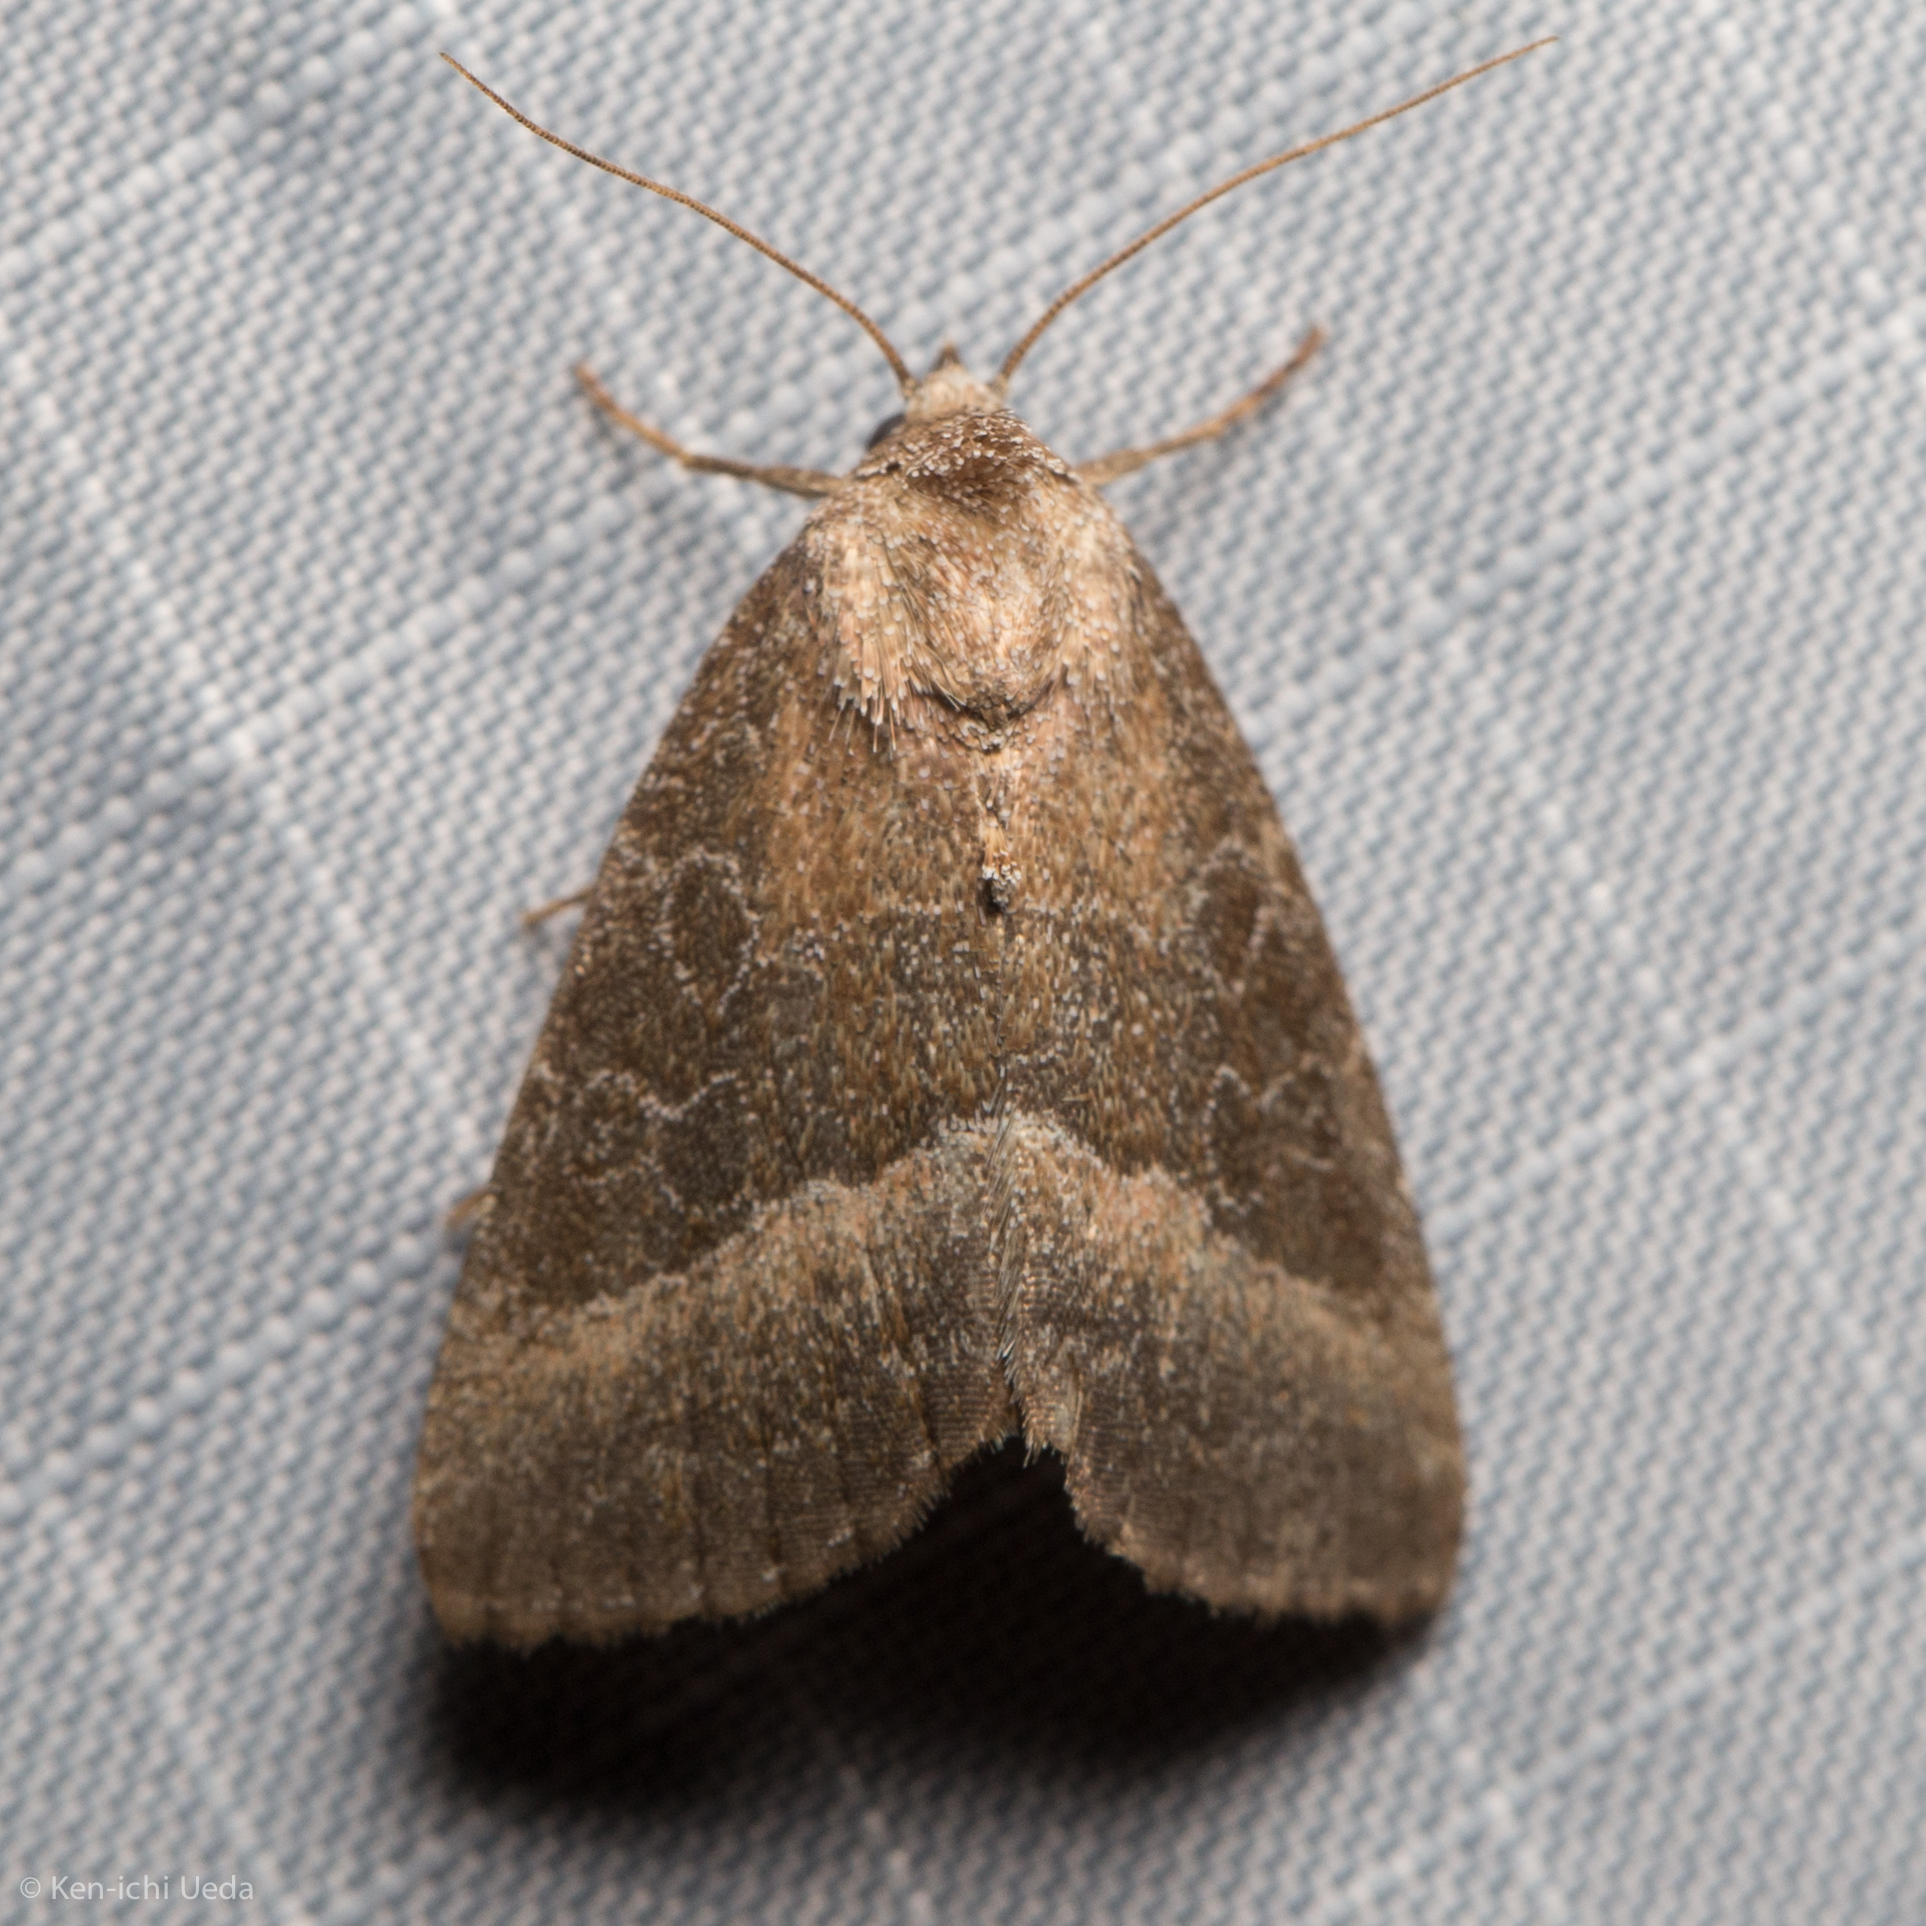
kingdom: Animalia
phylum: Arthropoda
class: Insecta
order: Lepidoptera
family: Noctuidae
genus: Ogdoconta
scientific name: Ogdoconta cinereola
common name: Common pinkband
